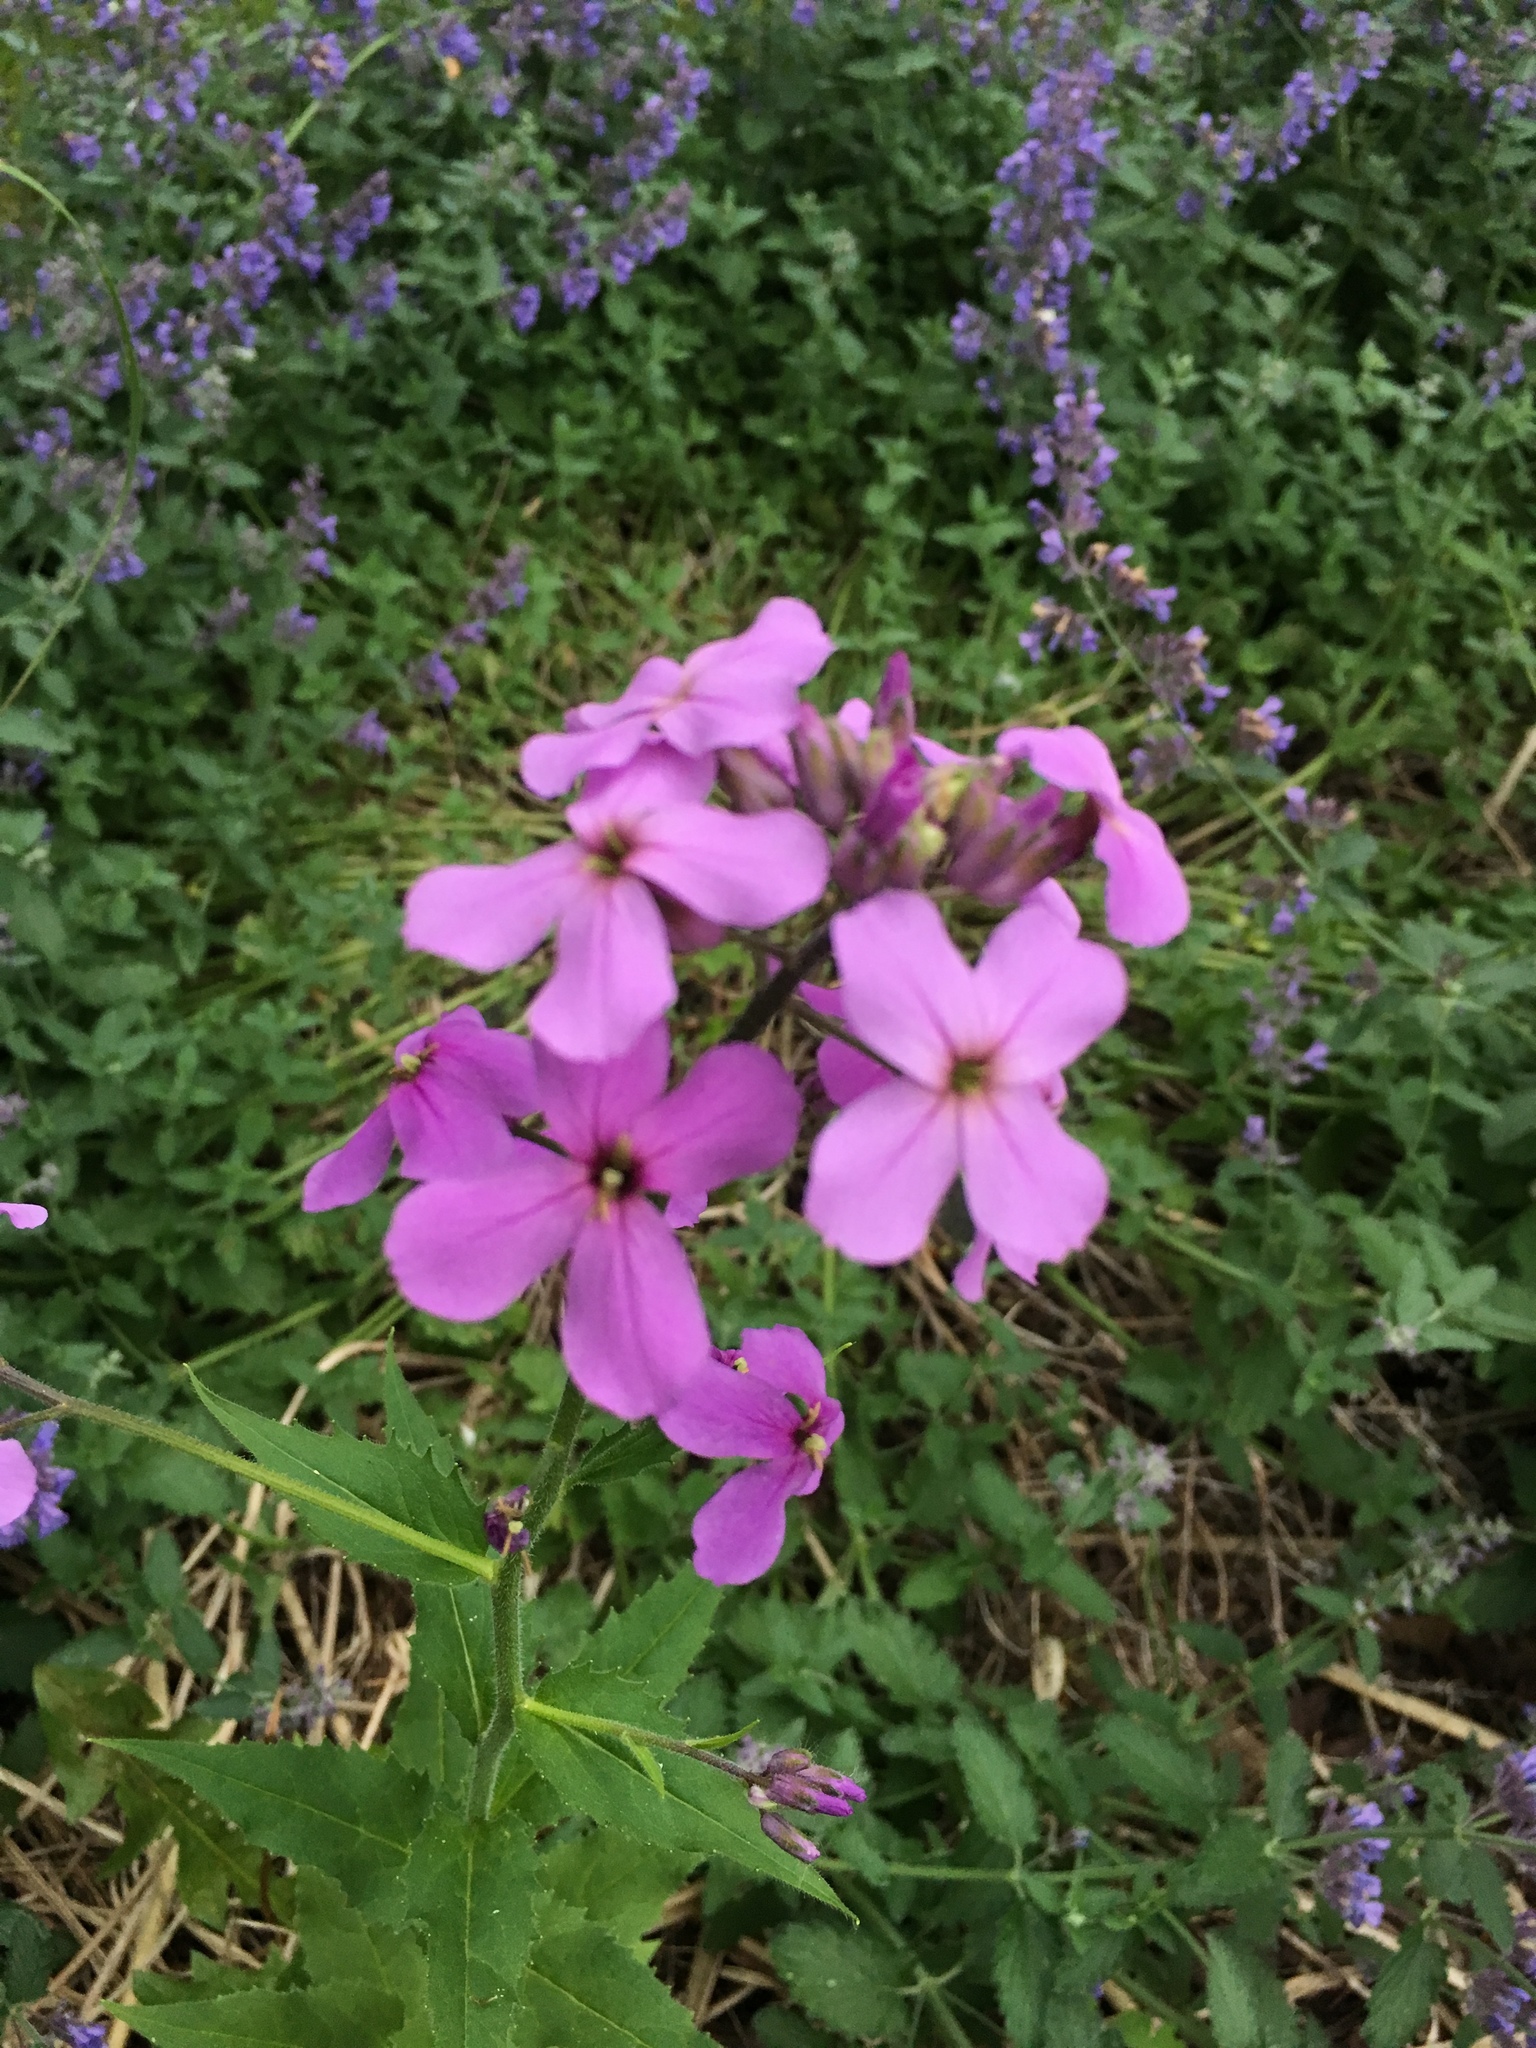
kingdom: Plantae
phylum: Tracheophyta
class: Magnoliopsida
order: Brassicales
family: Brassicaceae
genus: Hesperis
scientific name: Hesperis matronalis
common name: Dame's-violet
